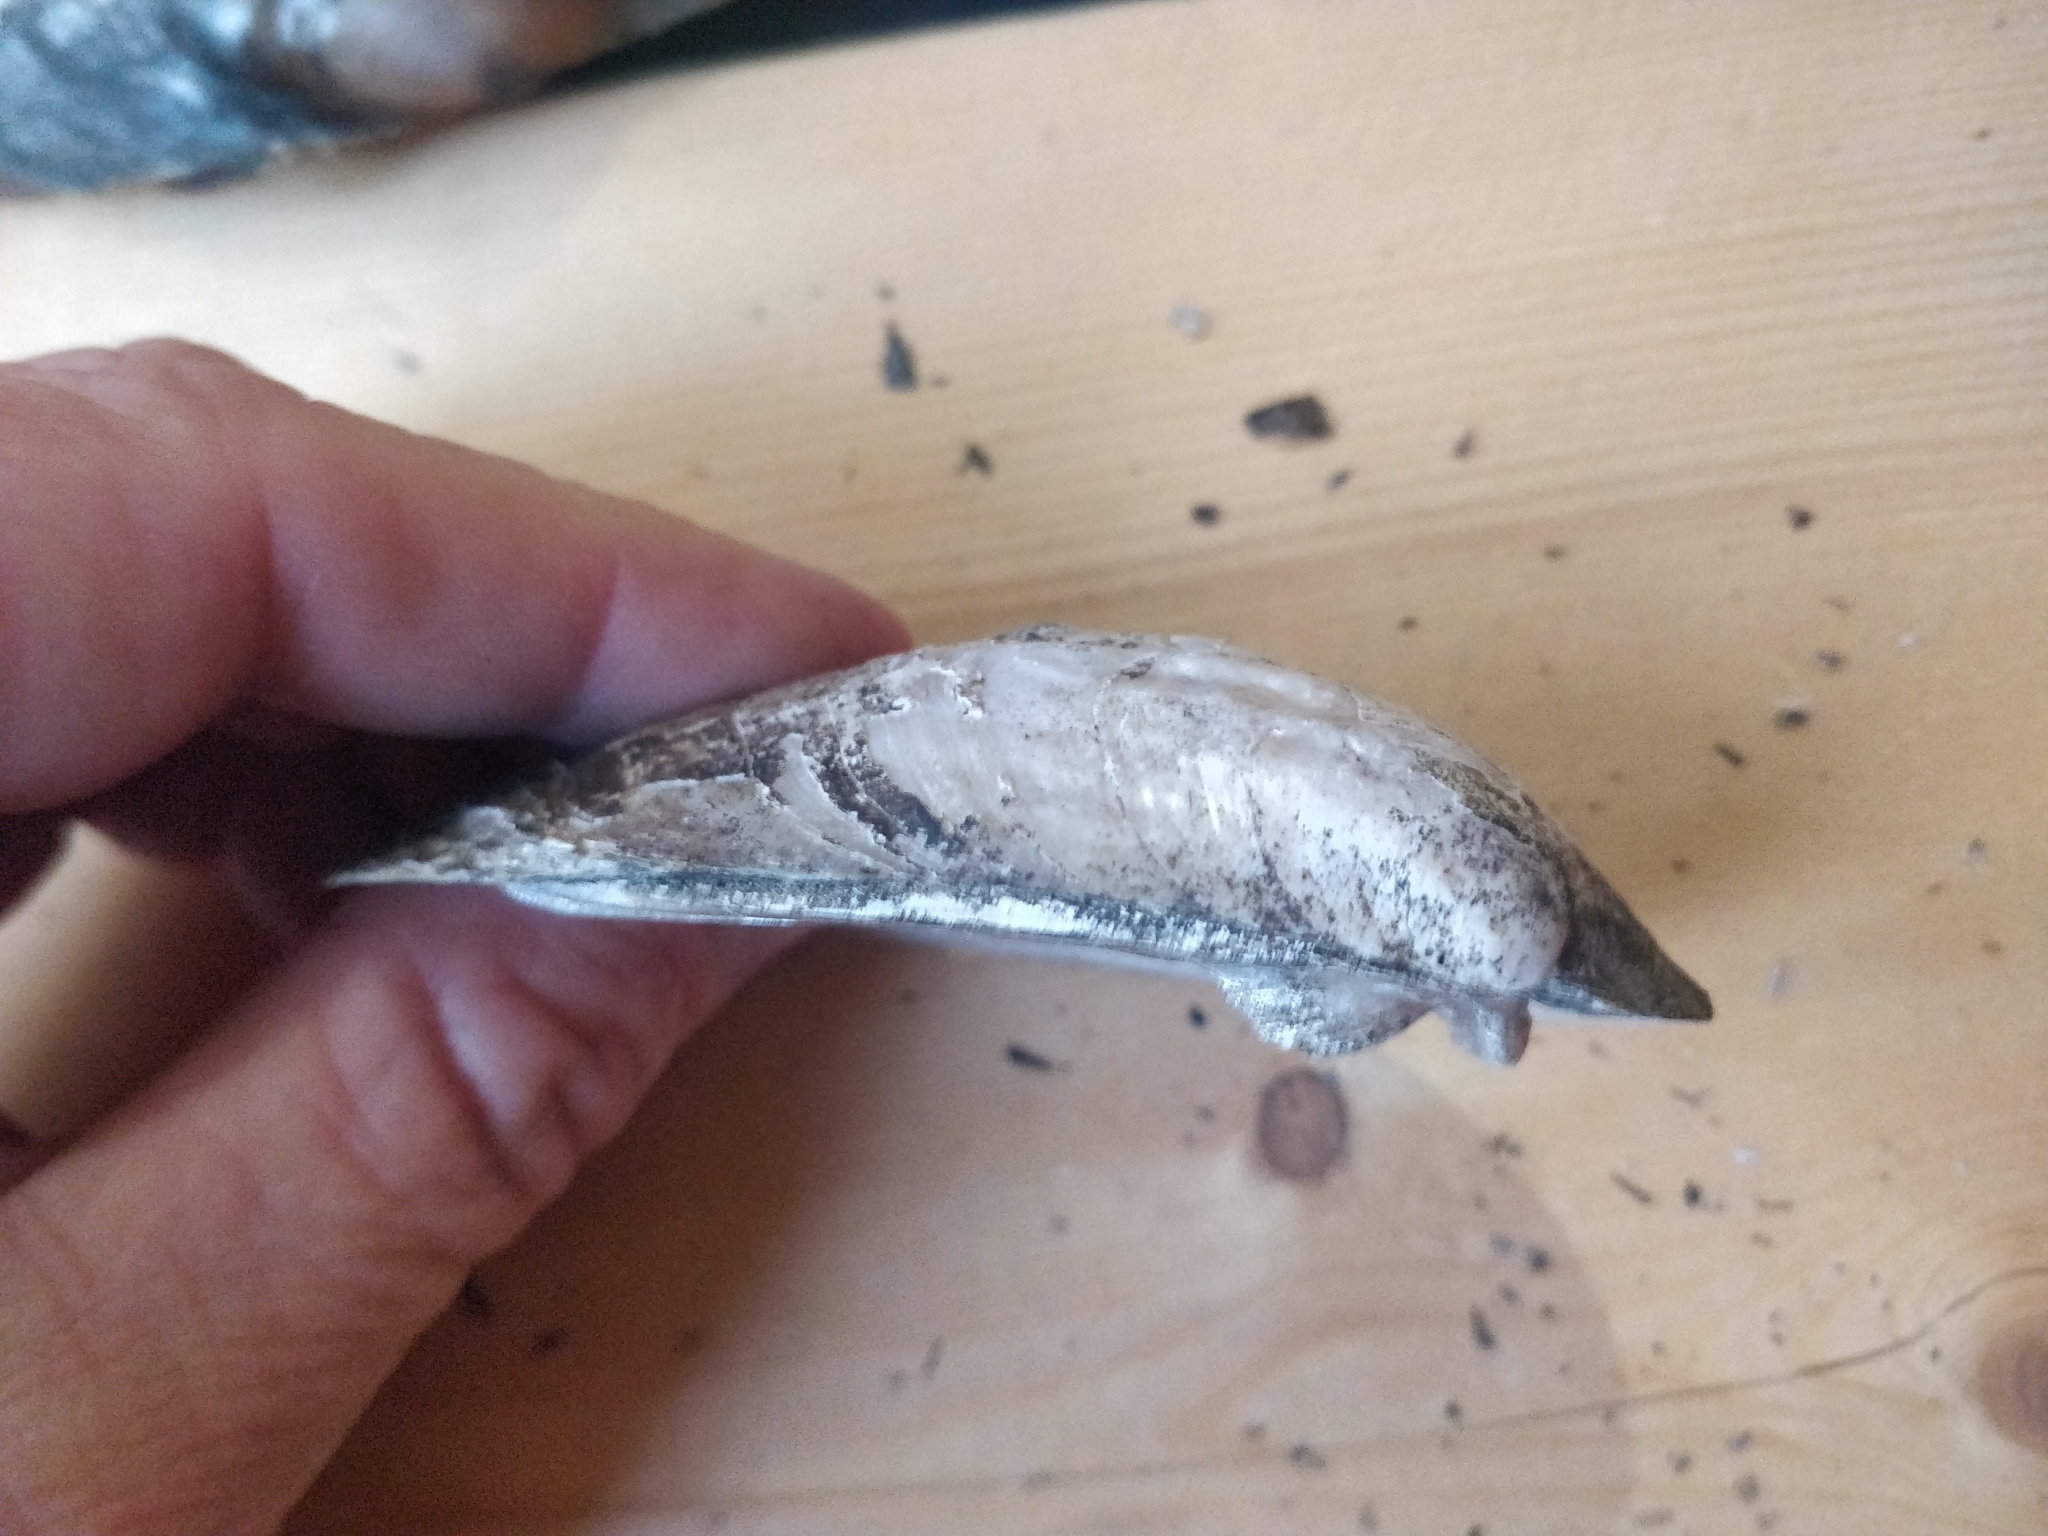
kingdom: Animalia
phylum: Mollusca
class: Bivalvia
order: Unionida
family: Unionidae
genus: Amblema
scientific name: Amblema plicata
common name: Threeridge
